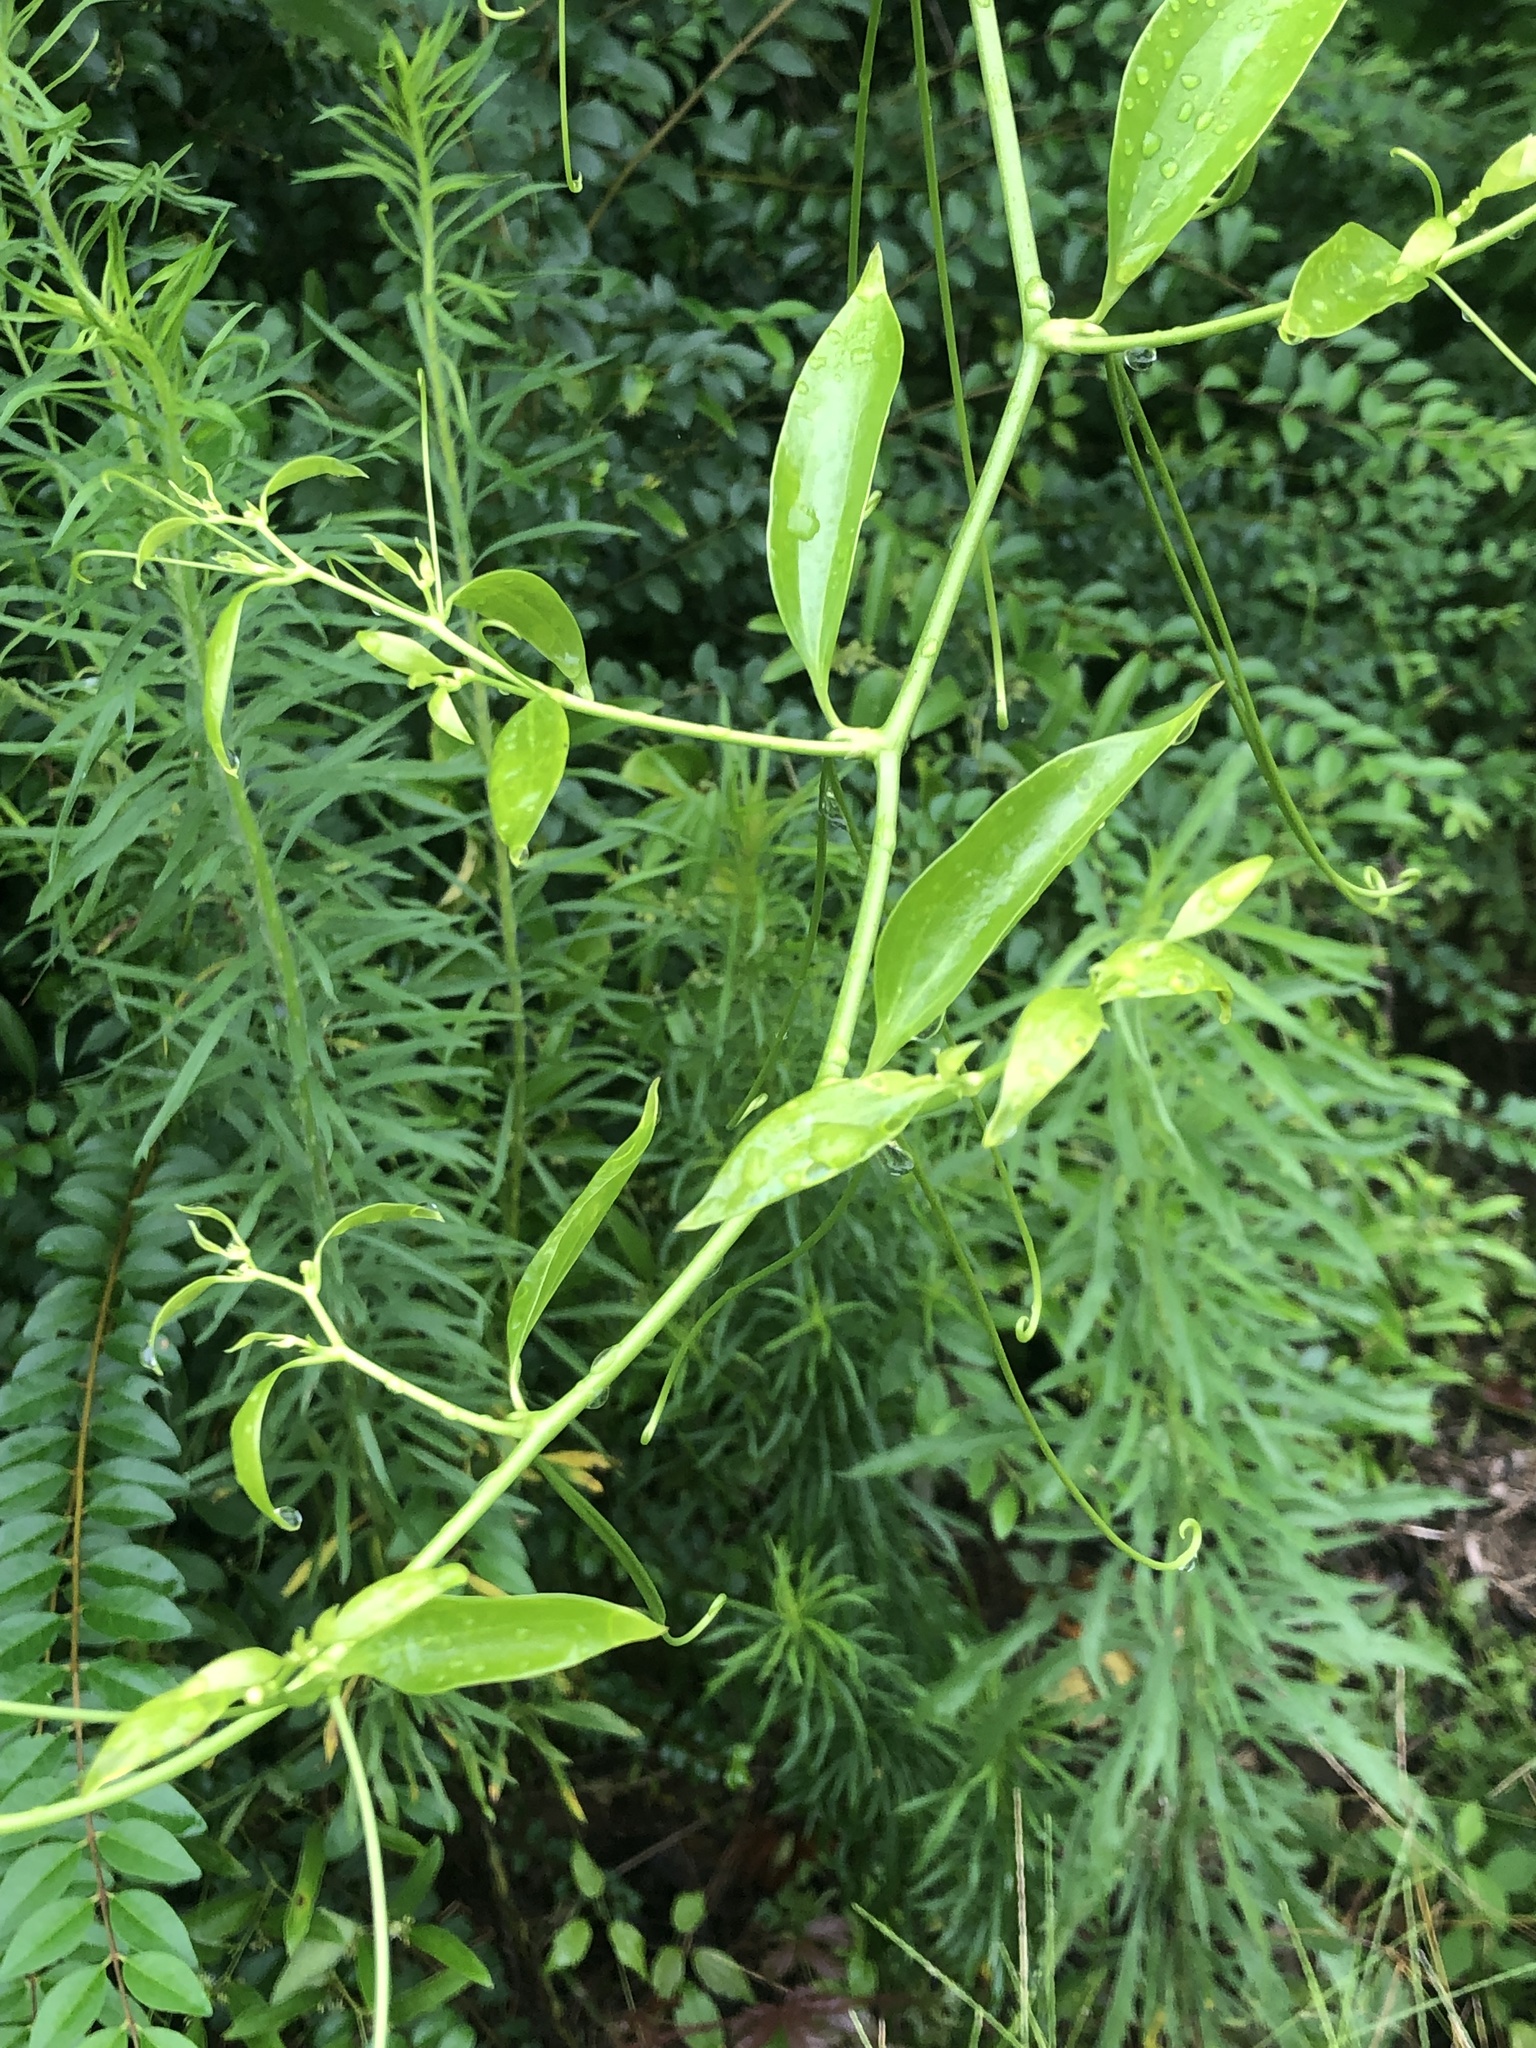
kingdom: Plantae
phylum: Tracheophyta
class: Liliopsida
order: Liliales
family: Smilacaceae
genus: Smilax
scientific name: Smilax maritima
